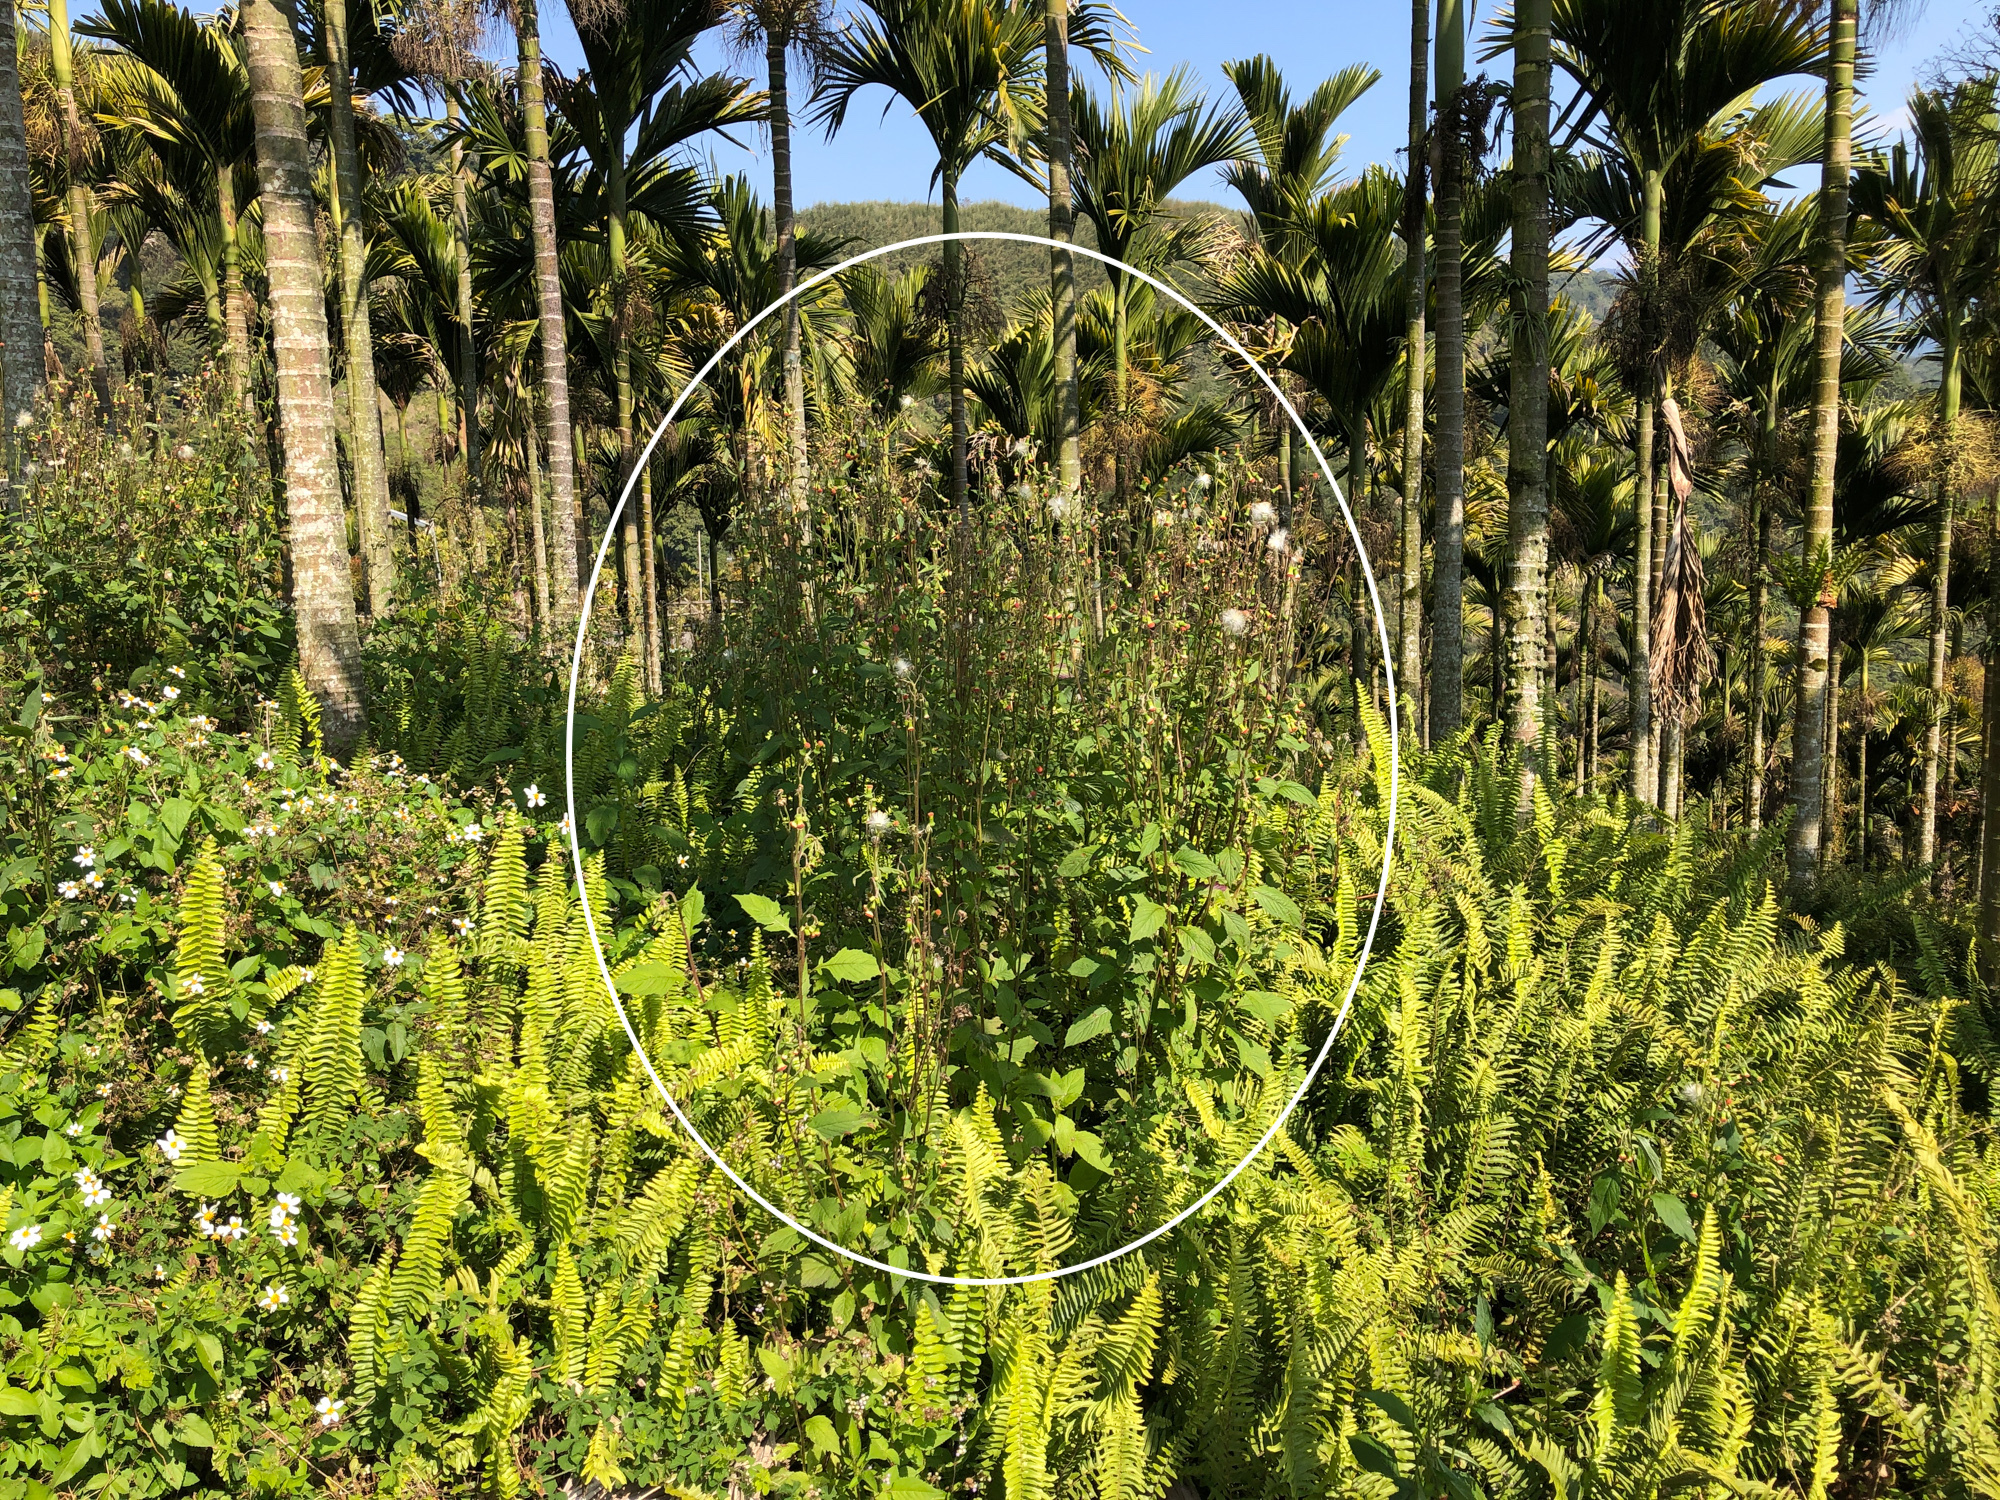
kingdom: Plantae
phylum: Tracheophyta
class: Magnoliopsida
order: Asterales
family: Asteraceae
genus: Crassocephalum
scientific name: Crassocephalum crepidioides
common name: Redflower ragleaf
